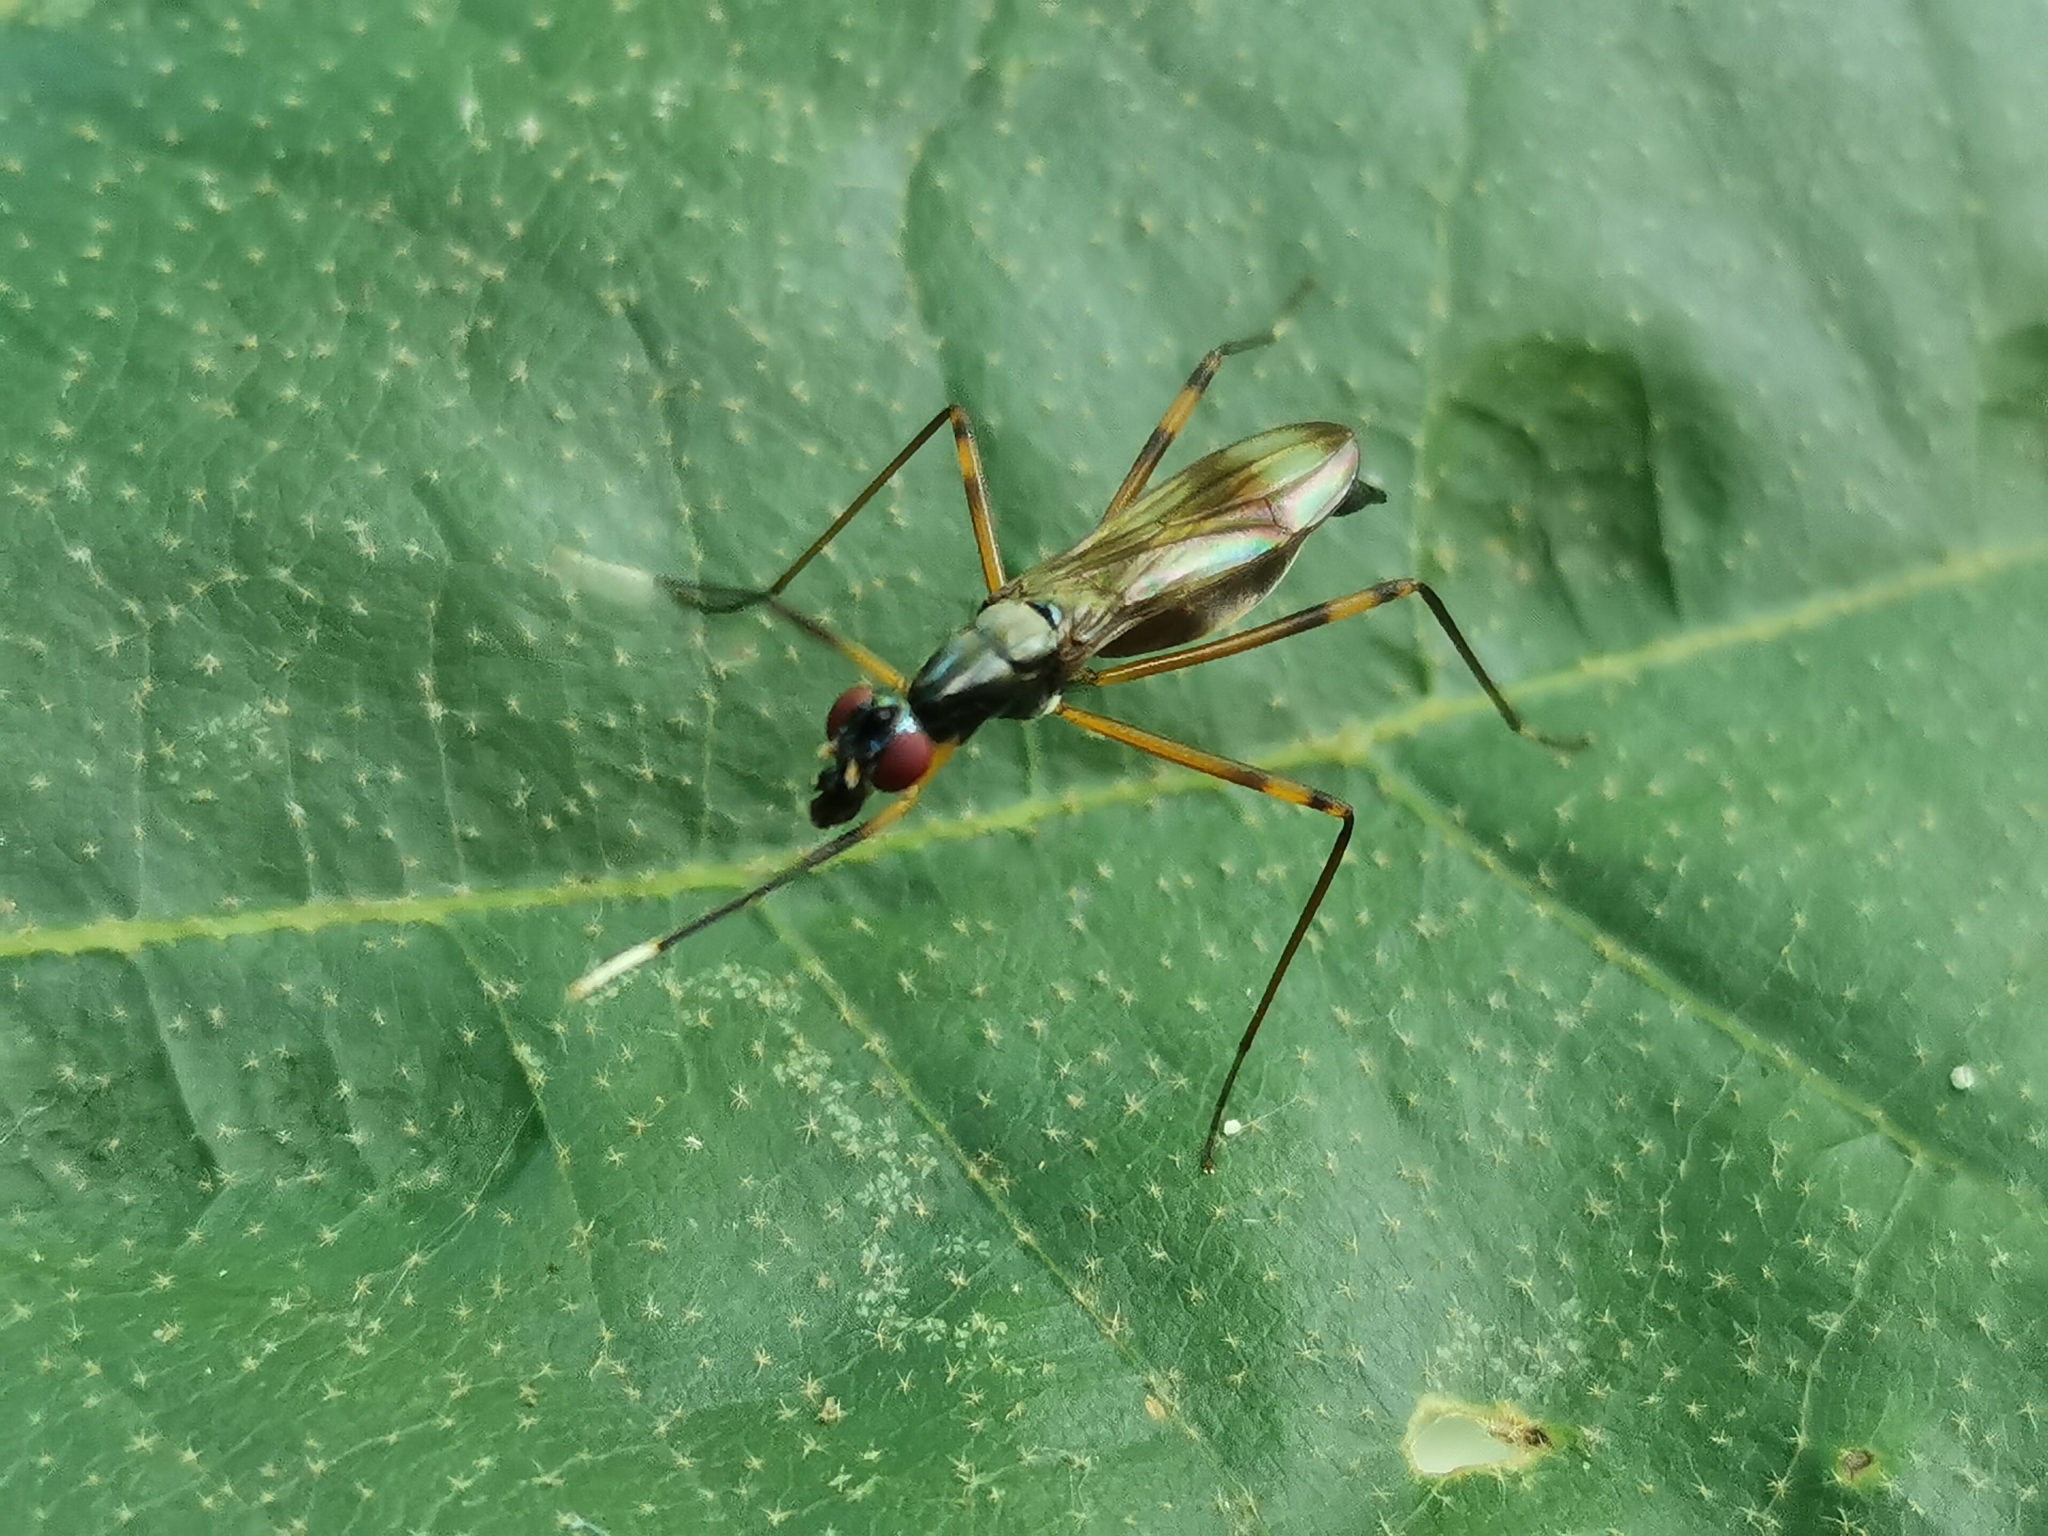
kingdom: Animalia
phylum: Arthropoda
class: Insecta
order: Diptera
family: Micropezidae
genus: Rainieria
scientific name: Rainieria antennaepes
